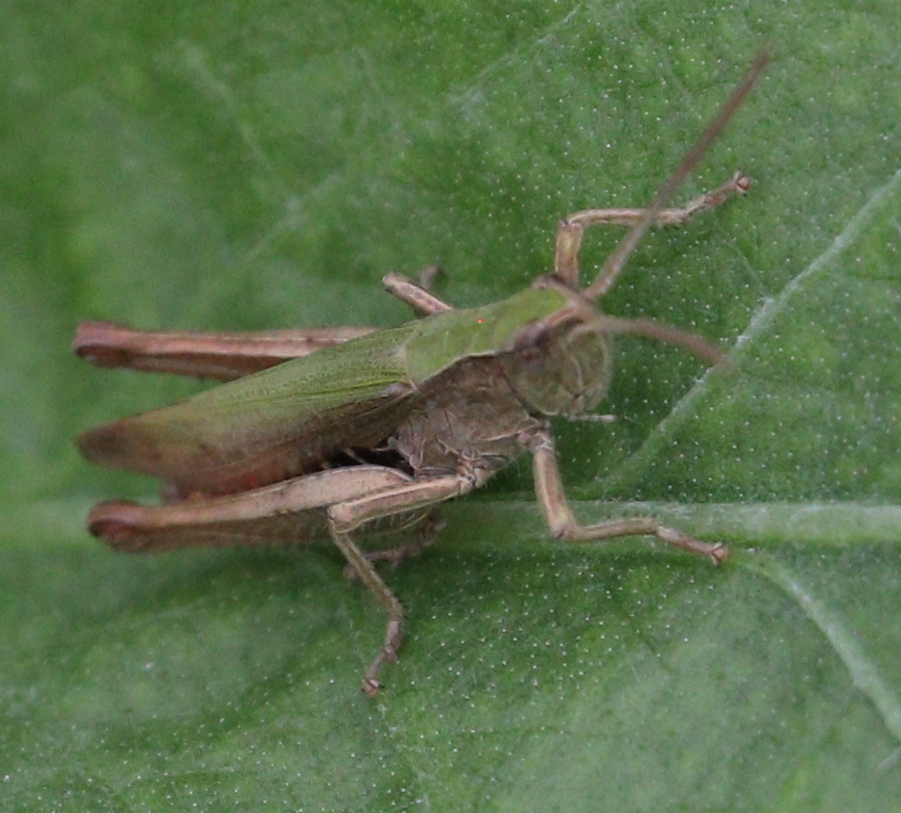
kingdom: Animalia
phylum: Arthropoda
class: Insecta
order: Orthoptera
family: Acrididae
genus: Chorthippus
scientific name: Chorthippus dorsatus
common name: Steppe grasshopper
